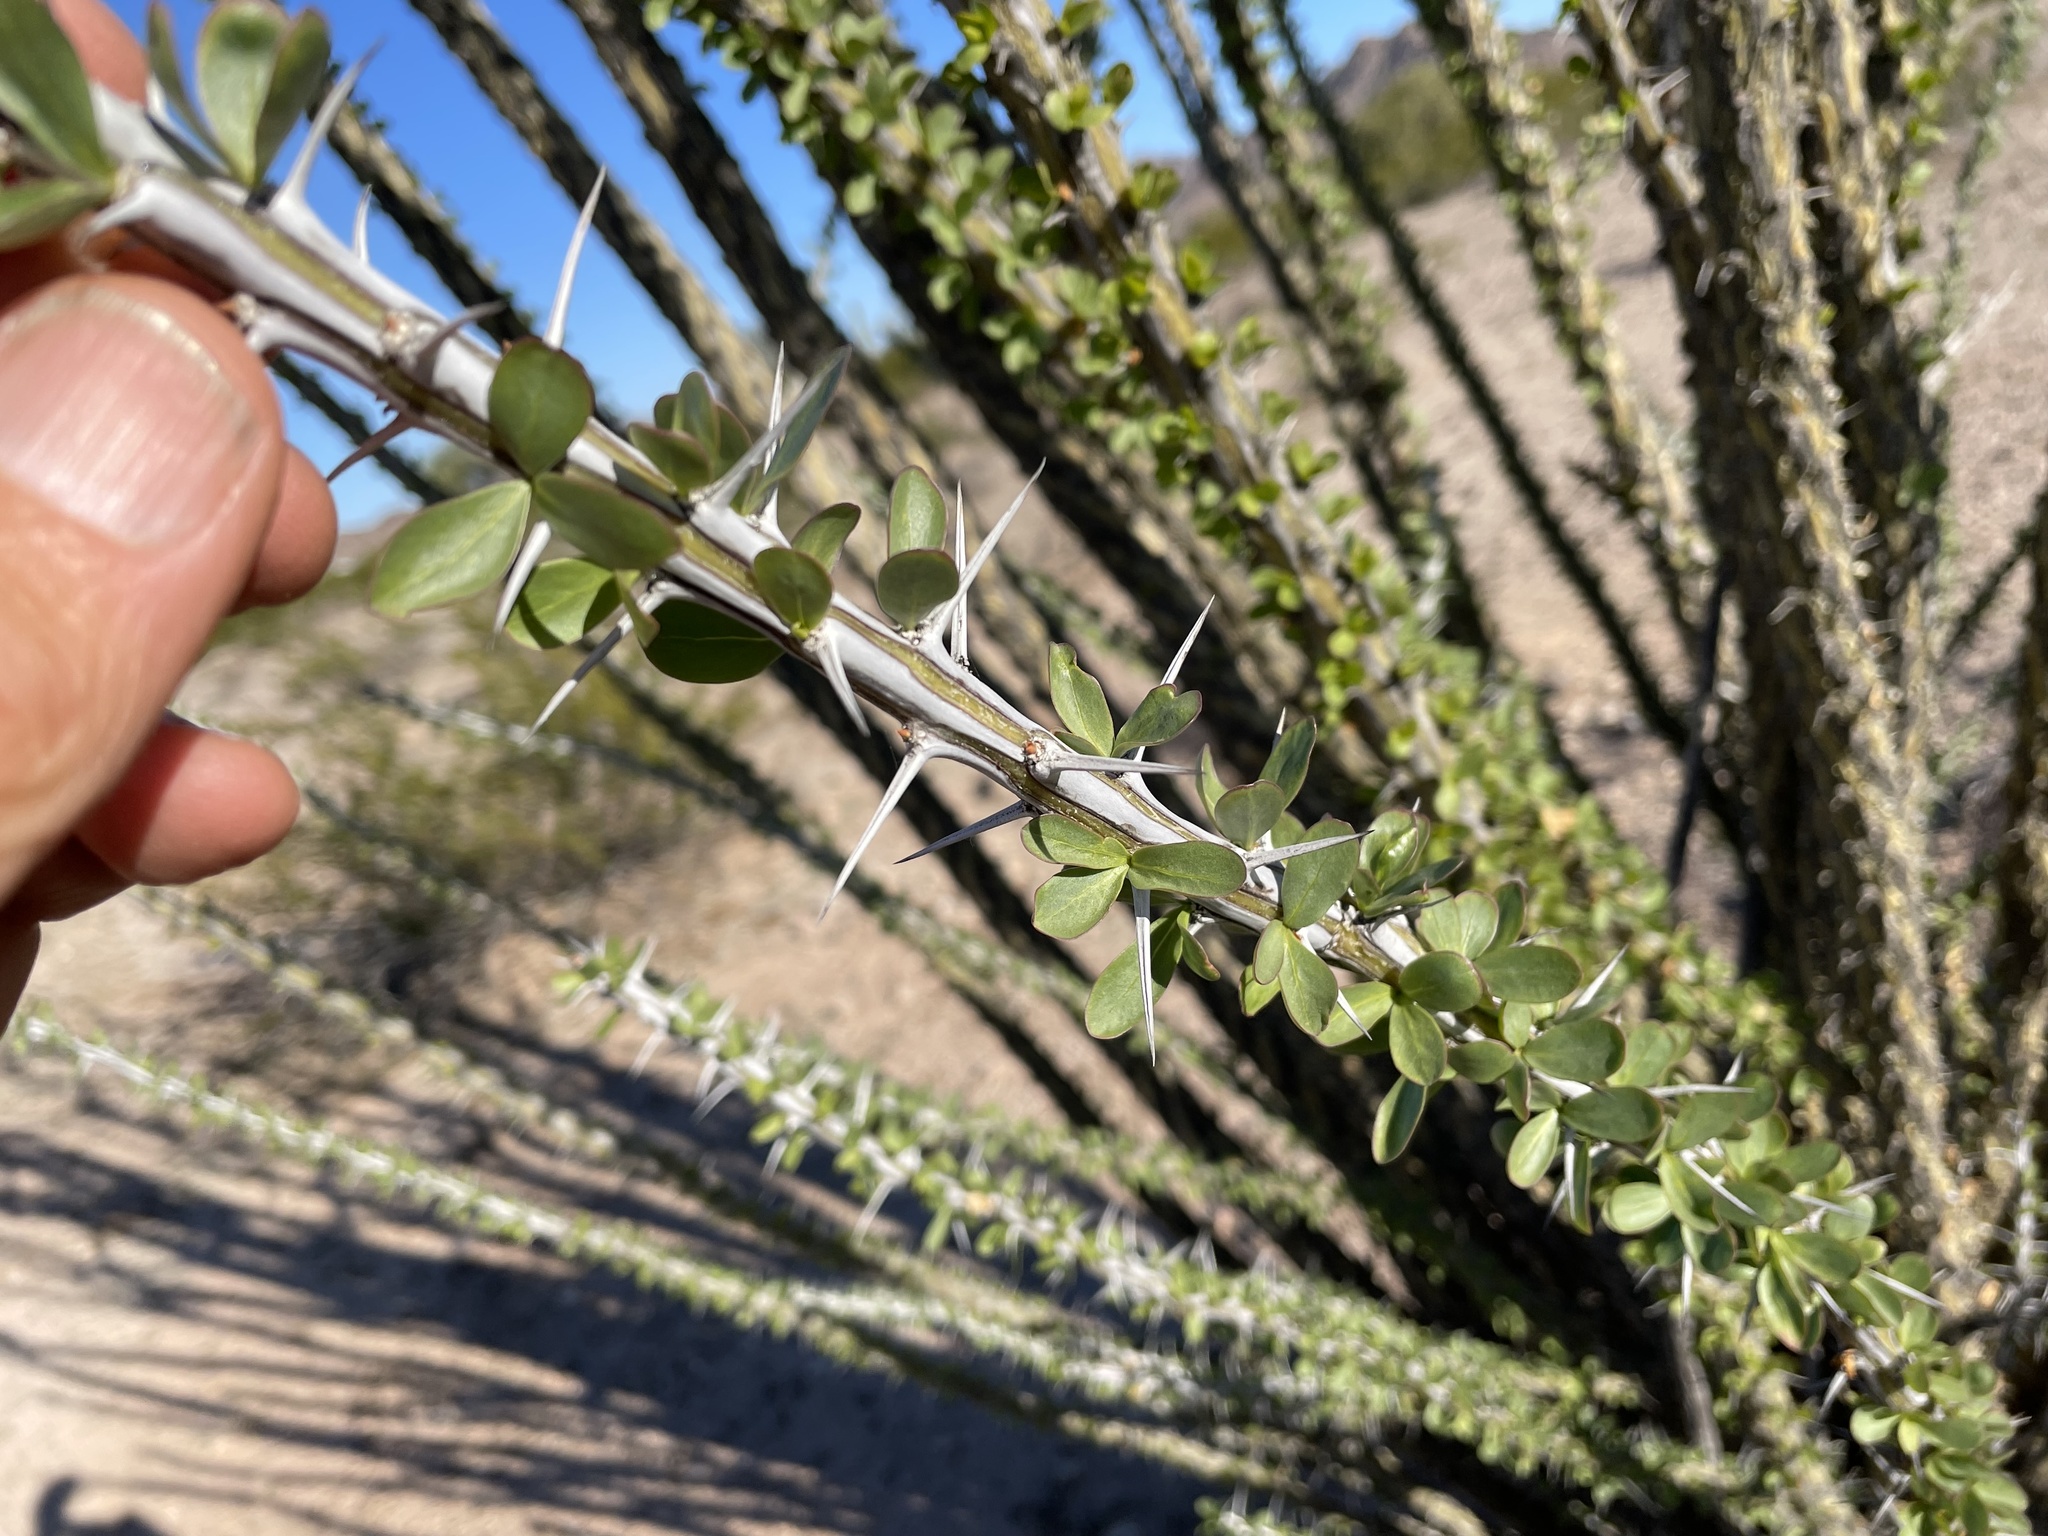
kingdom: Plantae
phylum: Tracheophyta
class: Magnoliopsida
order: Ericales
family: Fouquieriaceae
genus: Fouquieria
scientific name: Fouquieria splendens
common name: Vine-cactus
